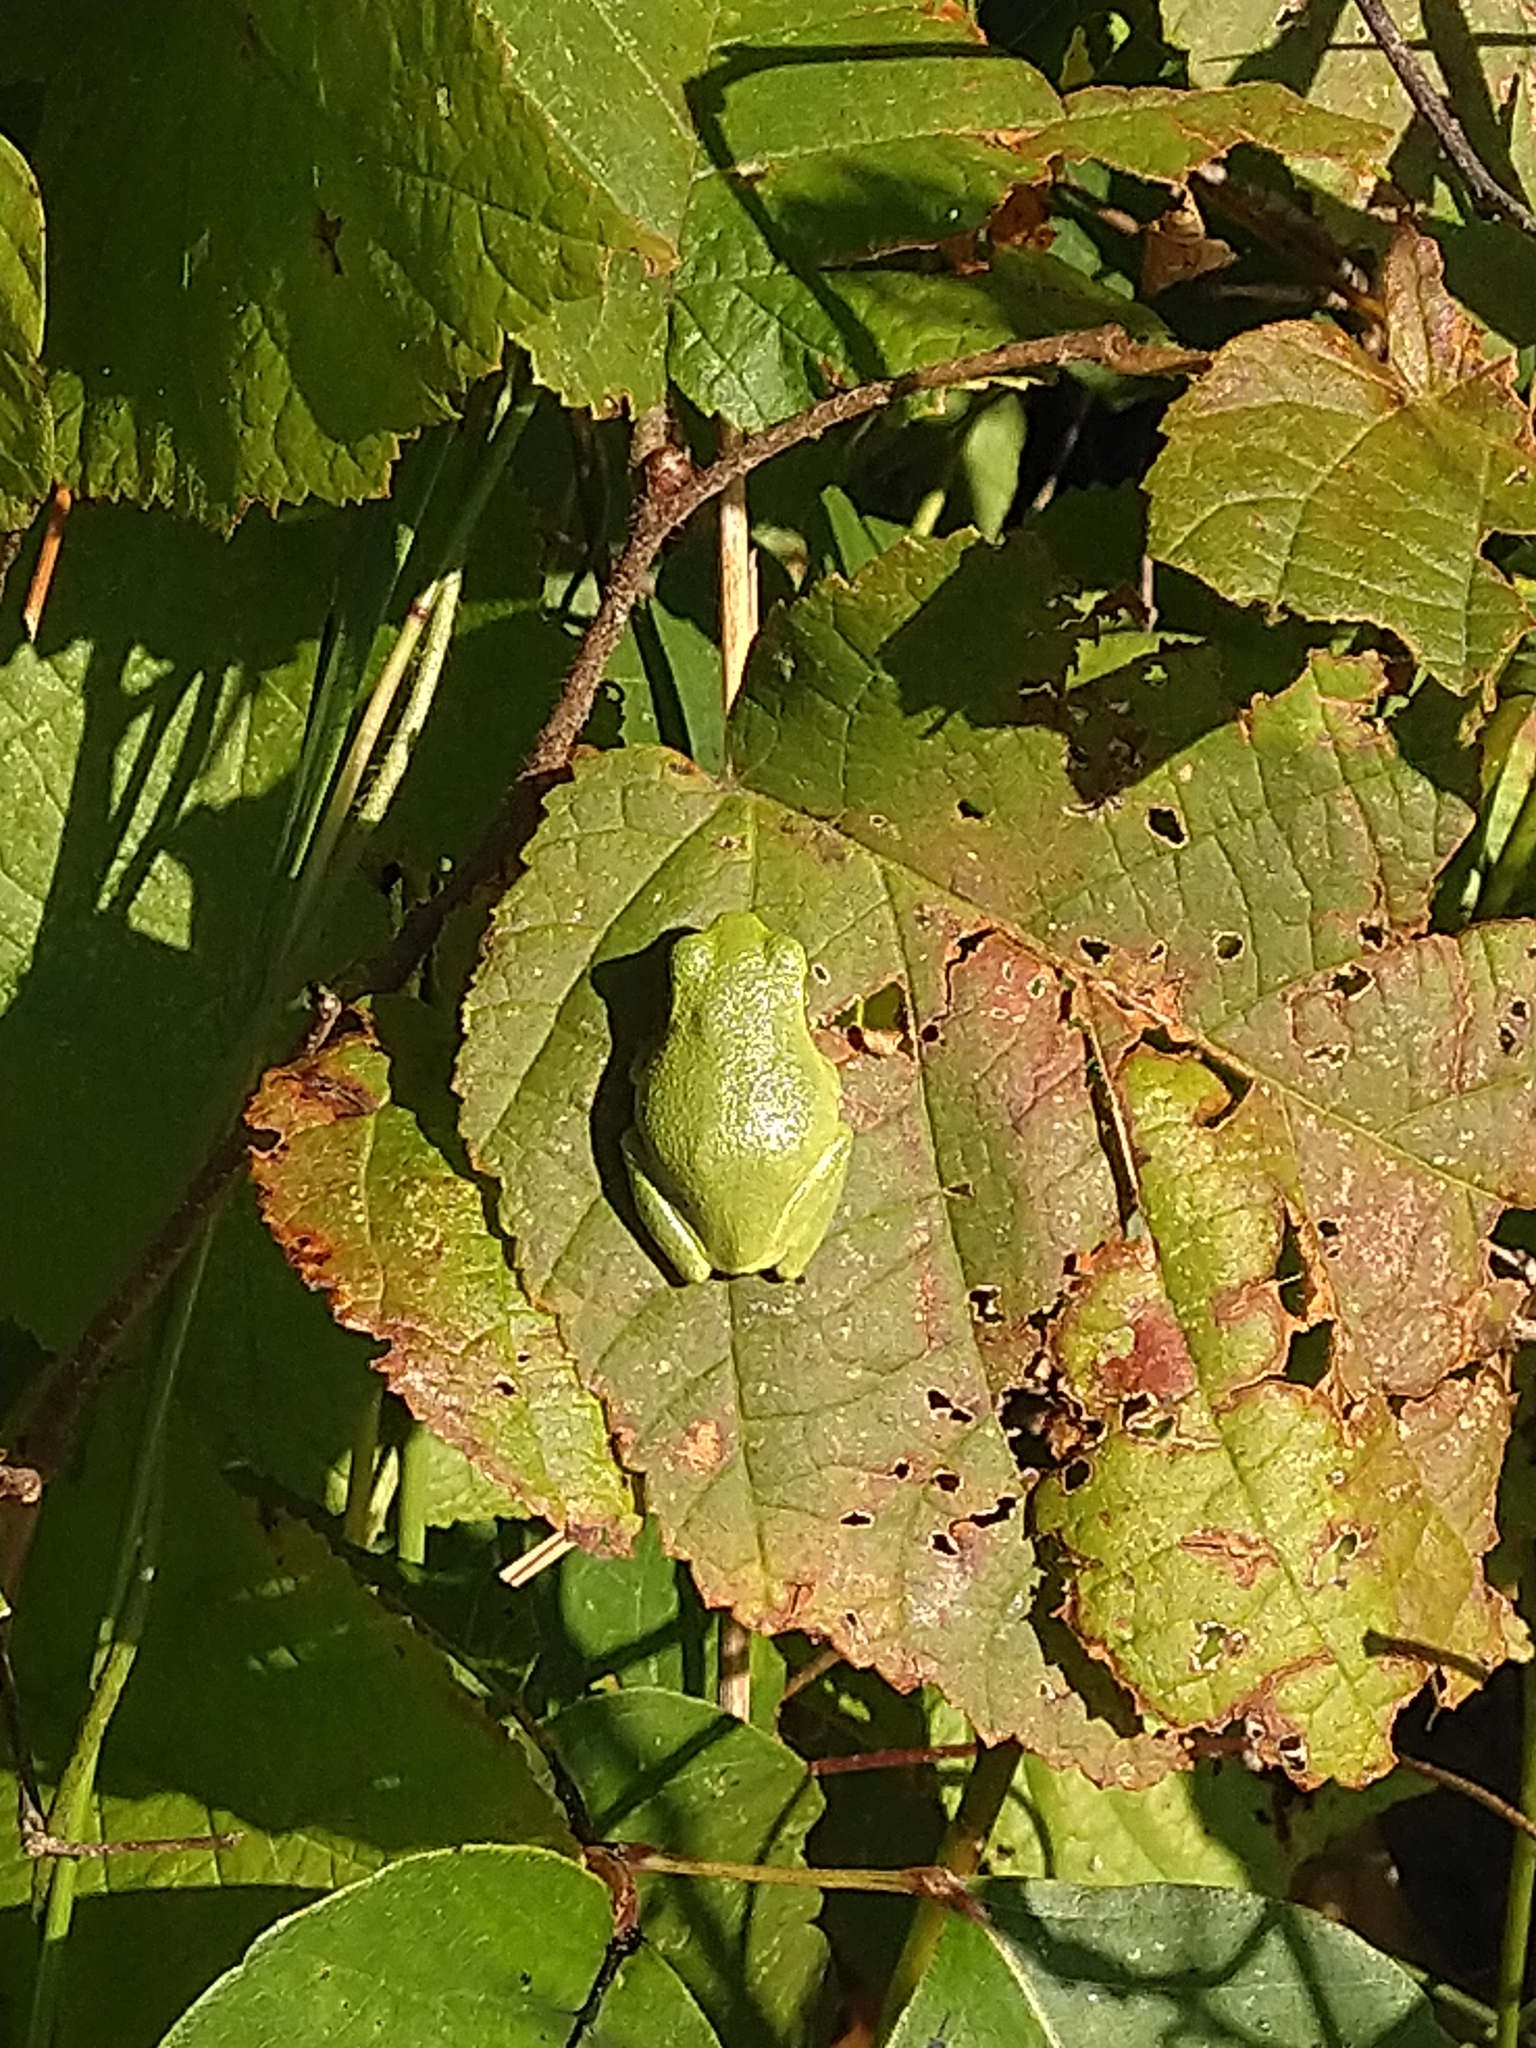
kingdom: Animalia
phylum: Chordata
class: Amphibia
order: Anura
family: Hylidae
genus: Hyla
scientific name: Hyla
